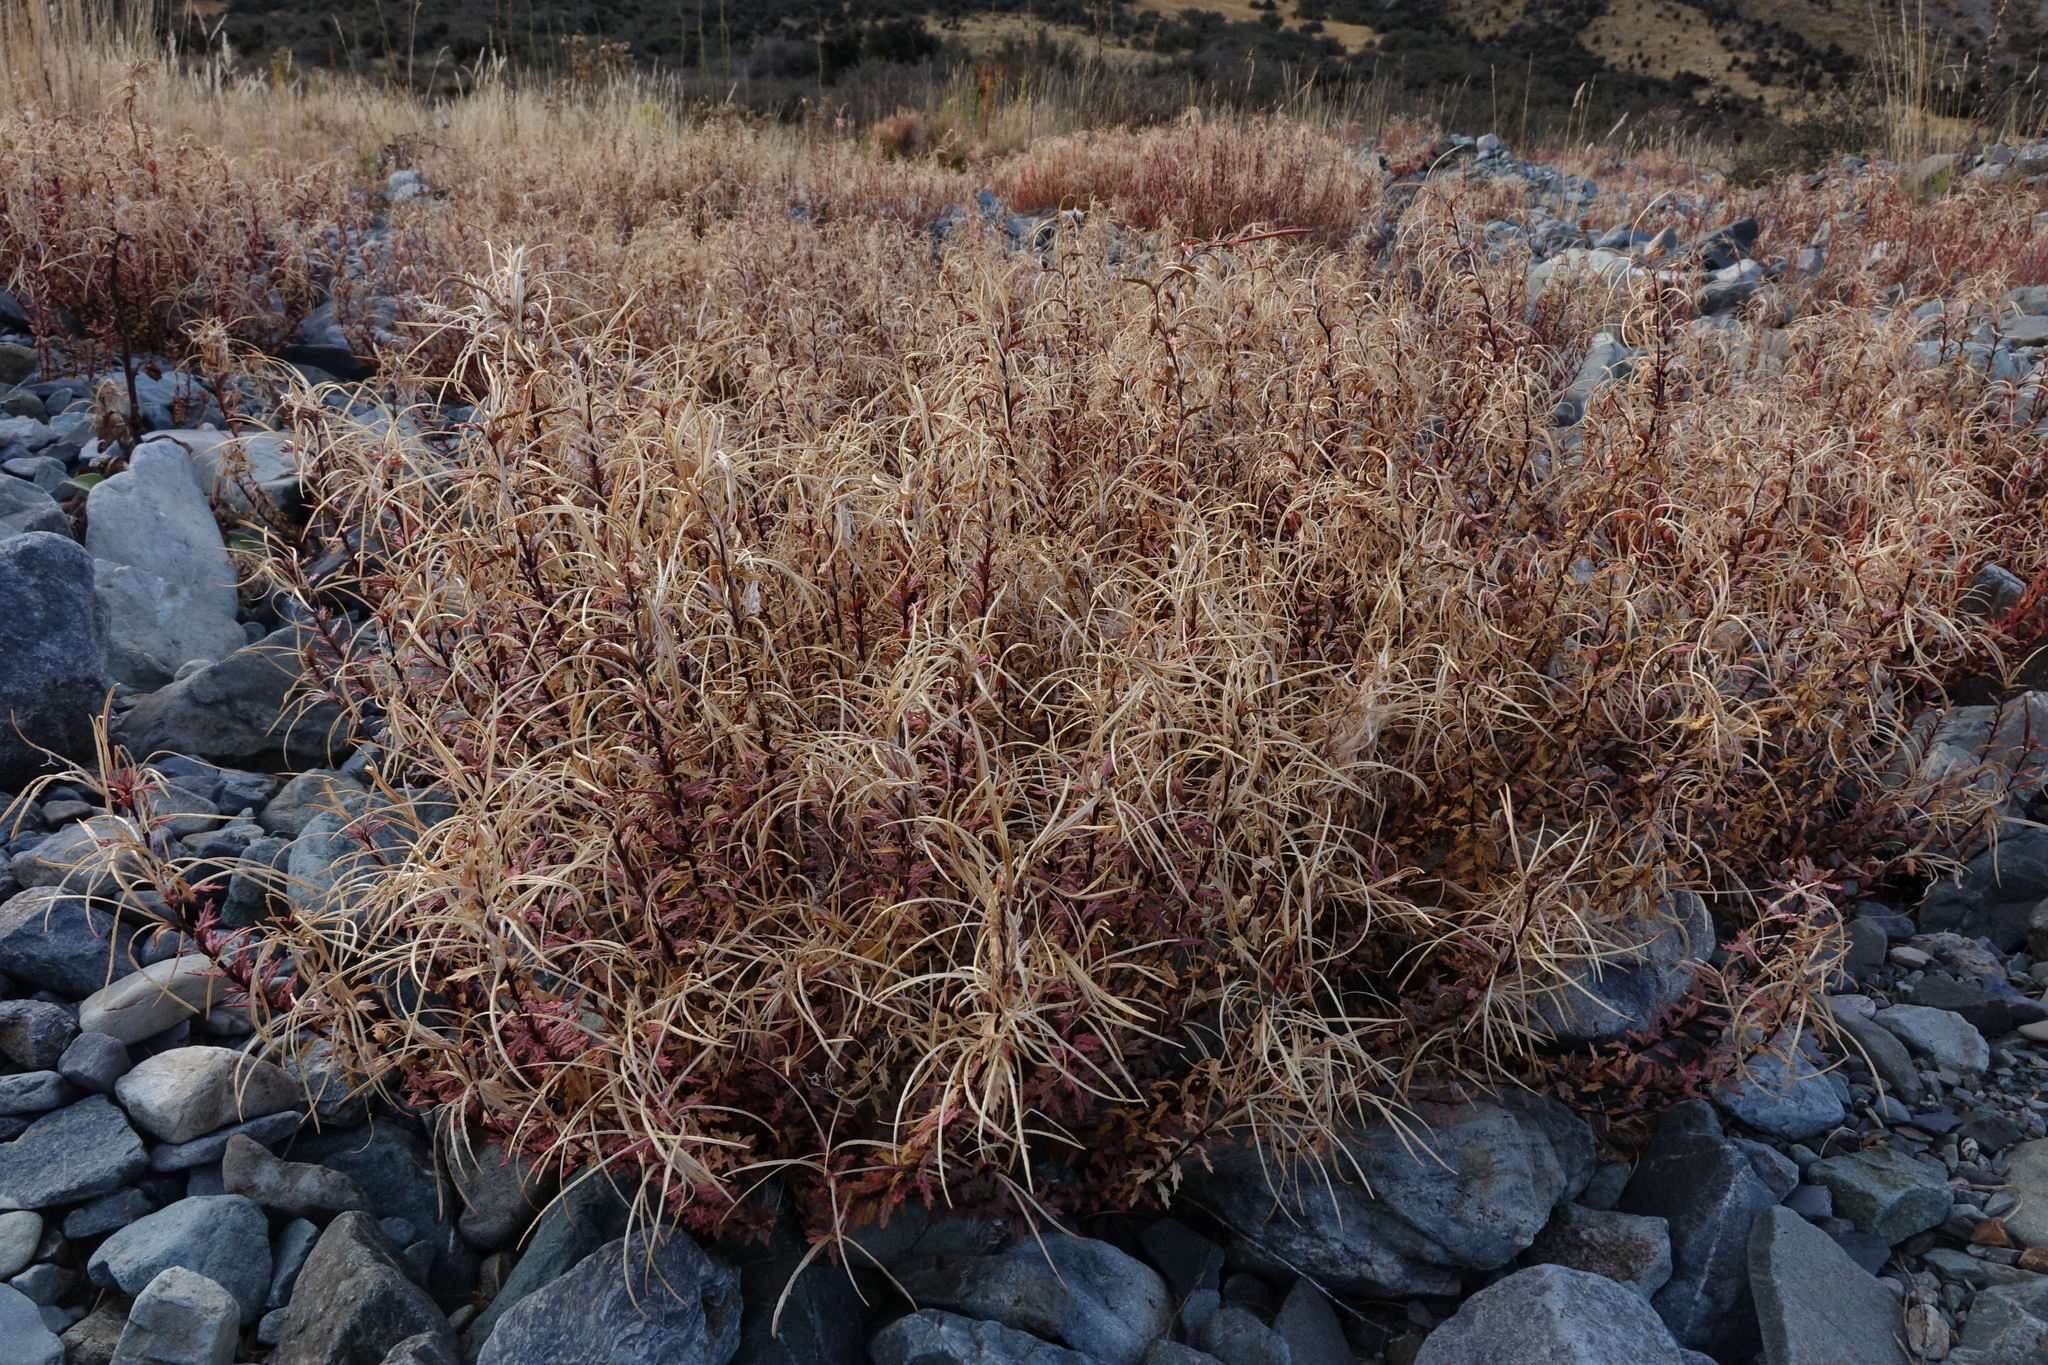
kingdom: Plantae
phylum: Tracheophyta
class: Magnoliopsida
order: Myrtales
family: Onagraceae
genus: Epilobium
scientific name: Epilobium melanocaulon
